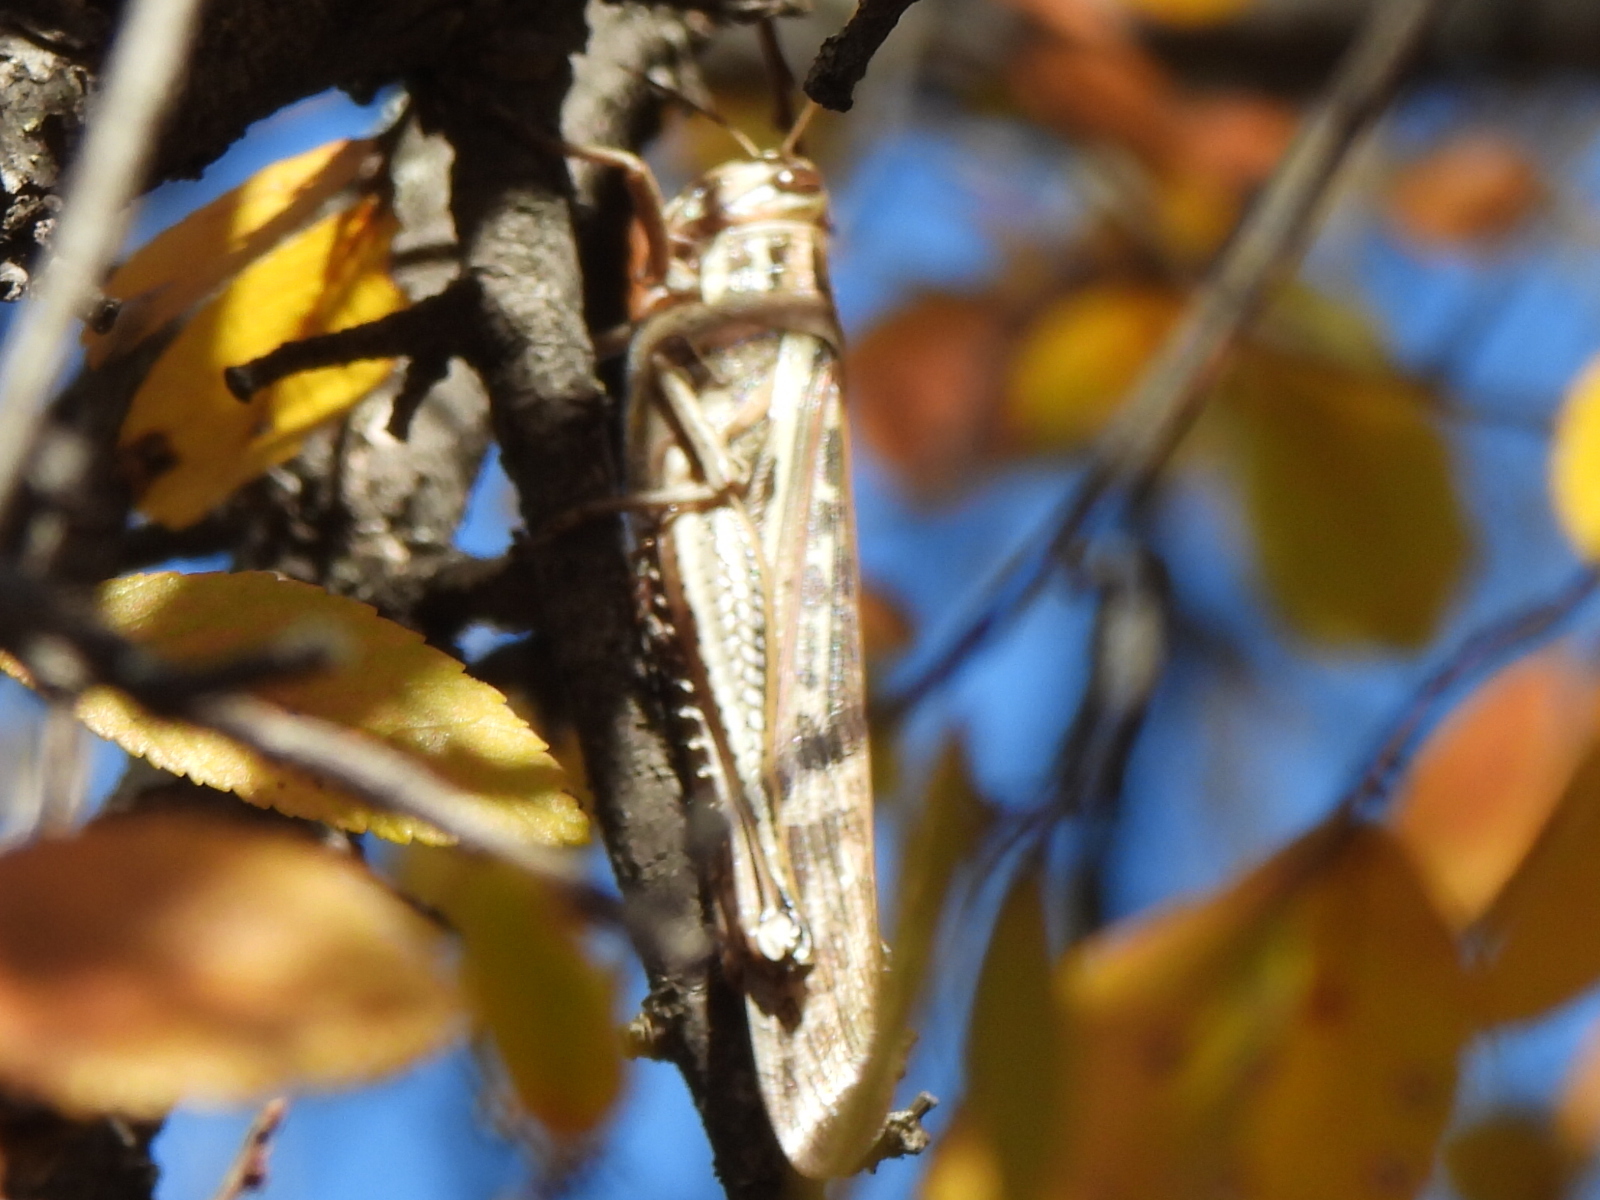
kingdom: Animalia
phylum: Arthropoda
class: Insecta
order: Orthoptera
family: Acrididae
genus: Schistocerca
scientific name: Schistocerca americana
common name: American bird locust
